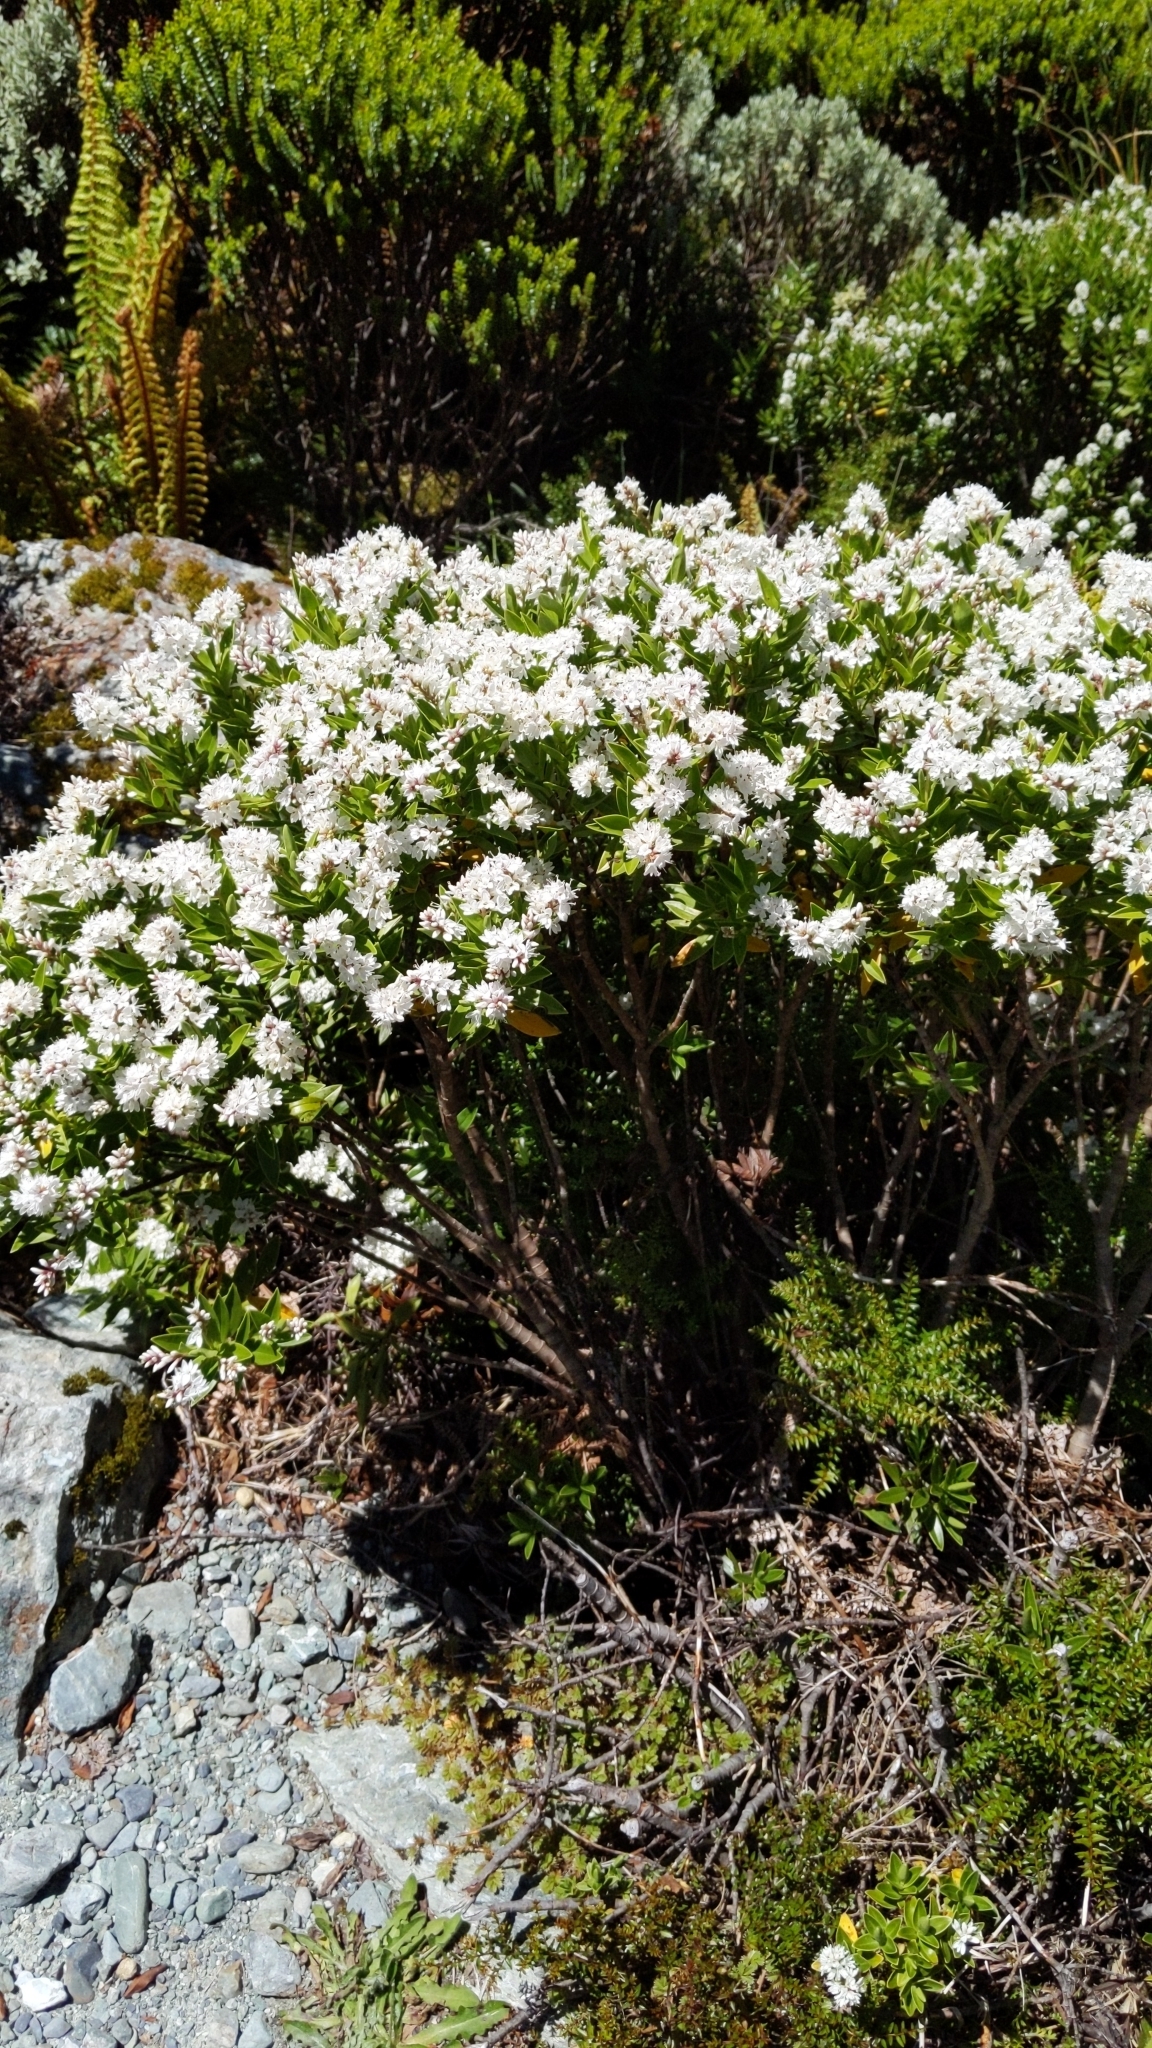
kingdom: Plantae
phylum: Tracheophyta
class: Magnoliopsida
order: Lamiales
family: Plantaginaceae
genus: Veronica
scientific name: Veronica subalpina
